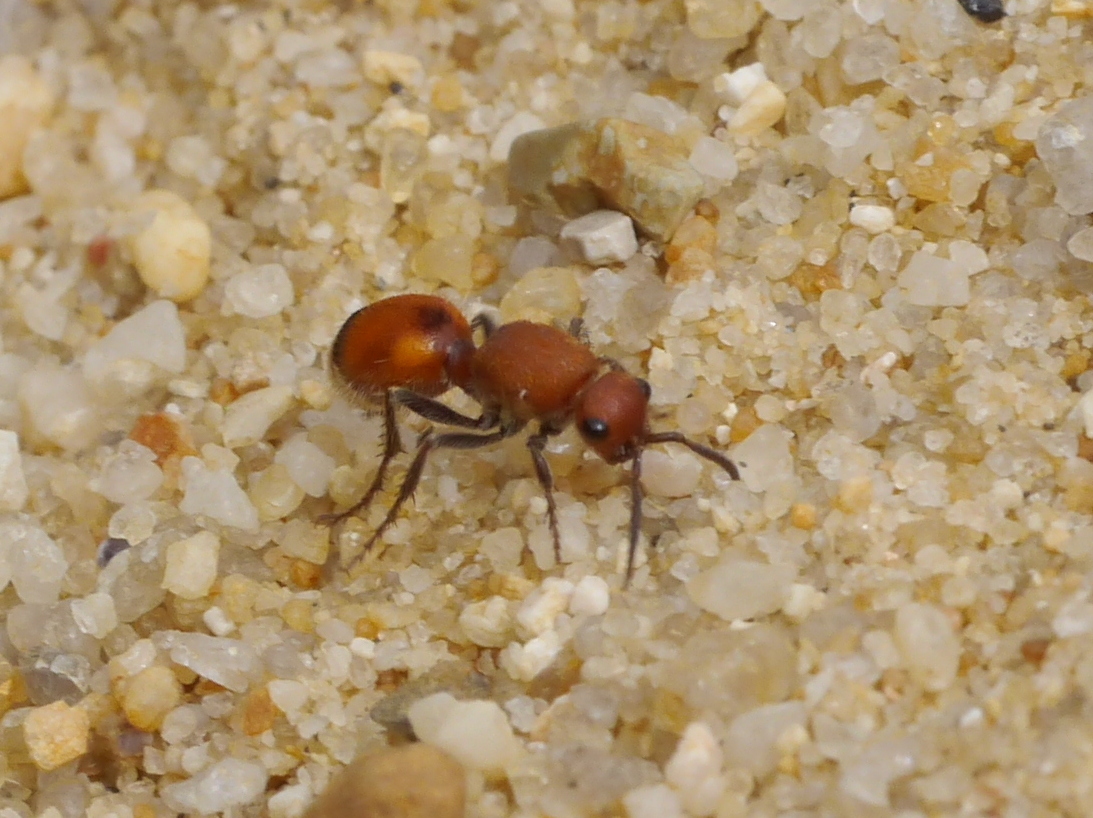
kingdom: Animalia
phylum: Arthropoda
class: Insecta
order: Hymenoptera
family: Mutillidae
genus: Dasymutilla
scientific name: Dasymutilla
